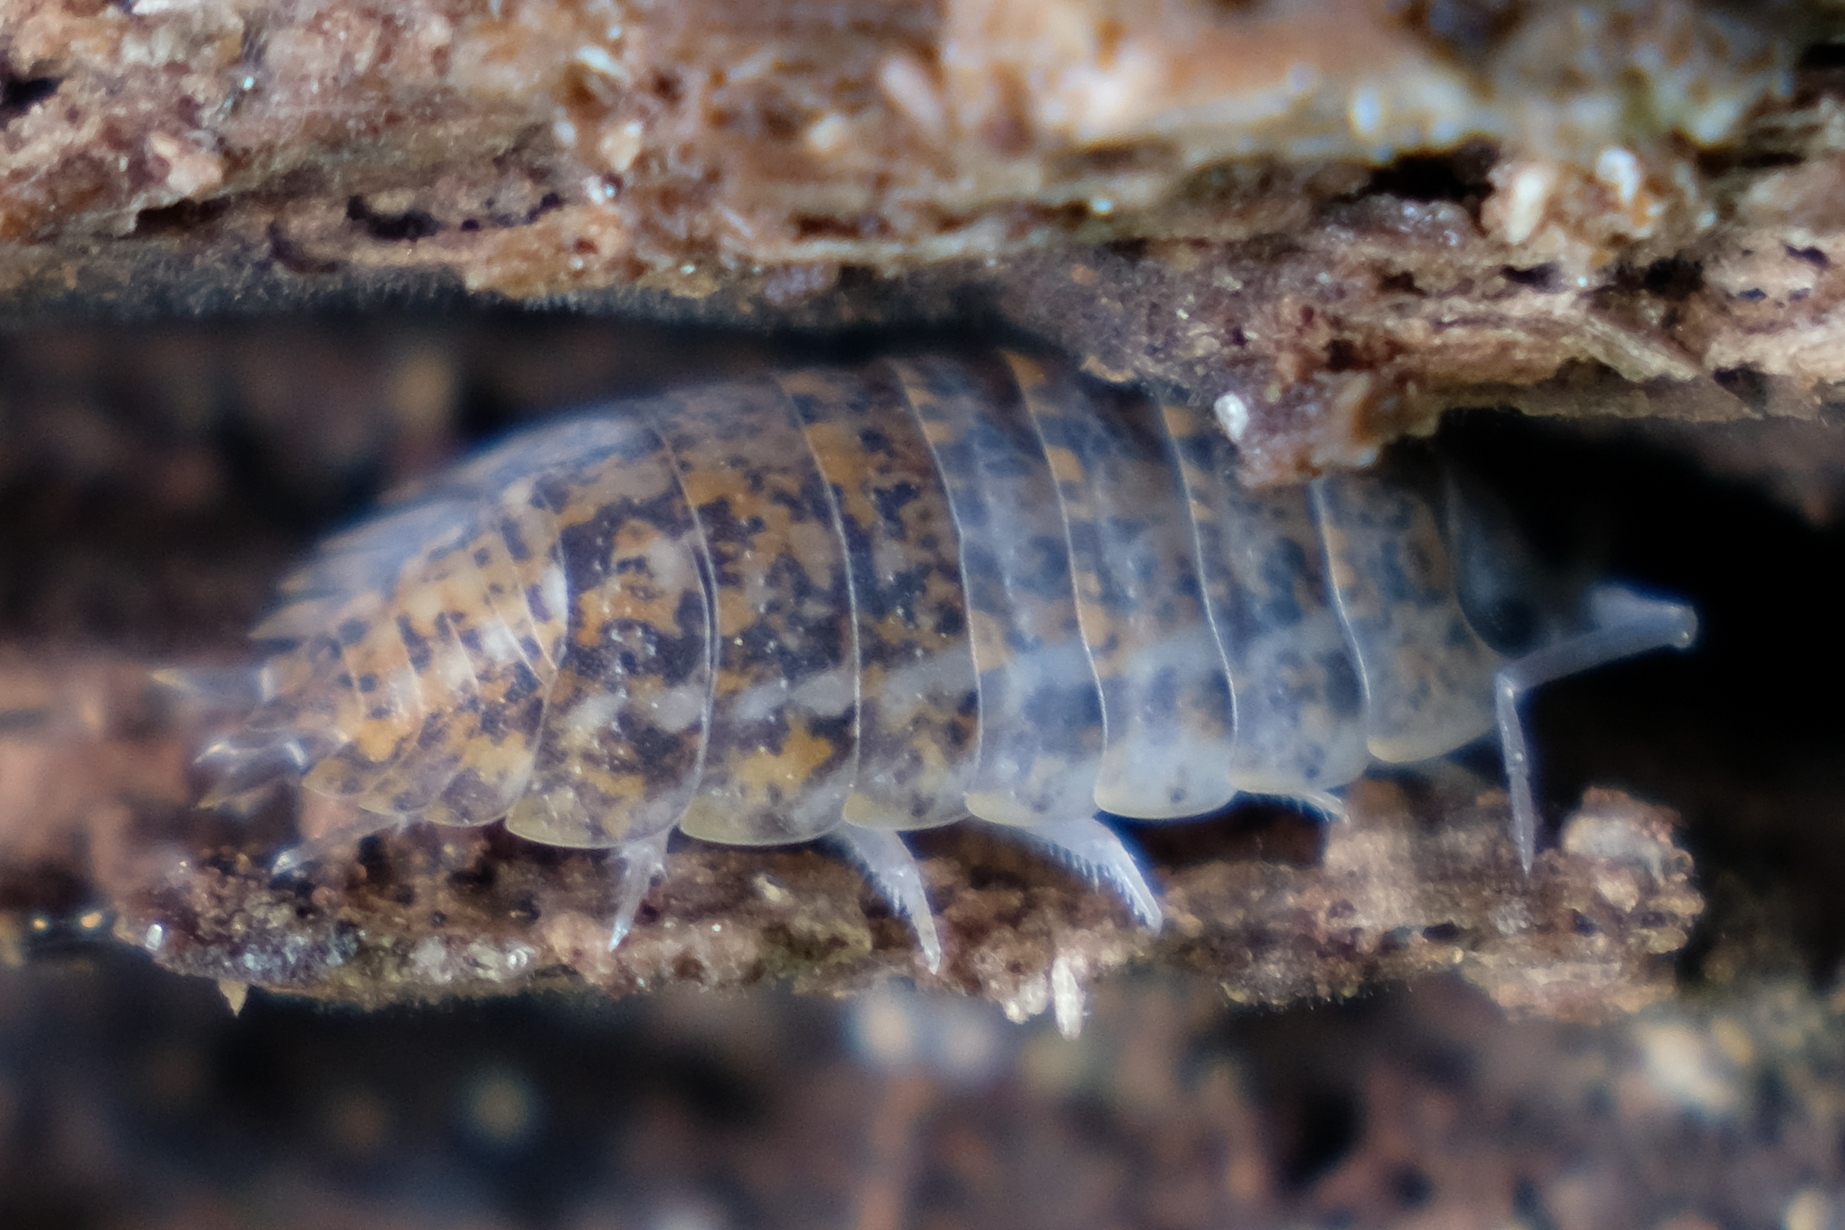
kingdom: Animalia
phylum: Arthropoda
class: Malacostraca
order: Isopoda
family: Trachelipodidae
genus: Trachelipus
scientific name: Trachelipus rathkii
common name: Isopod
